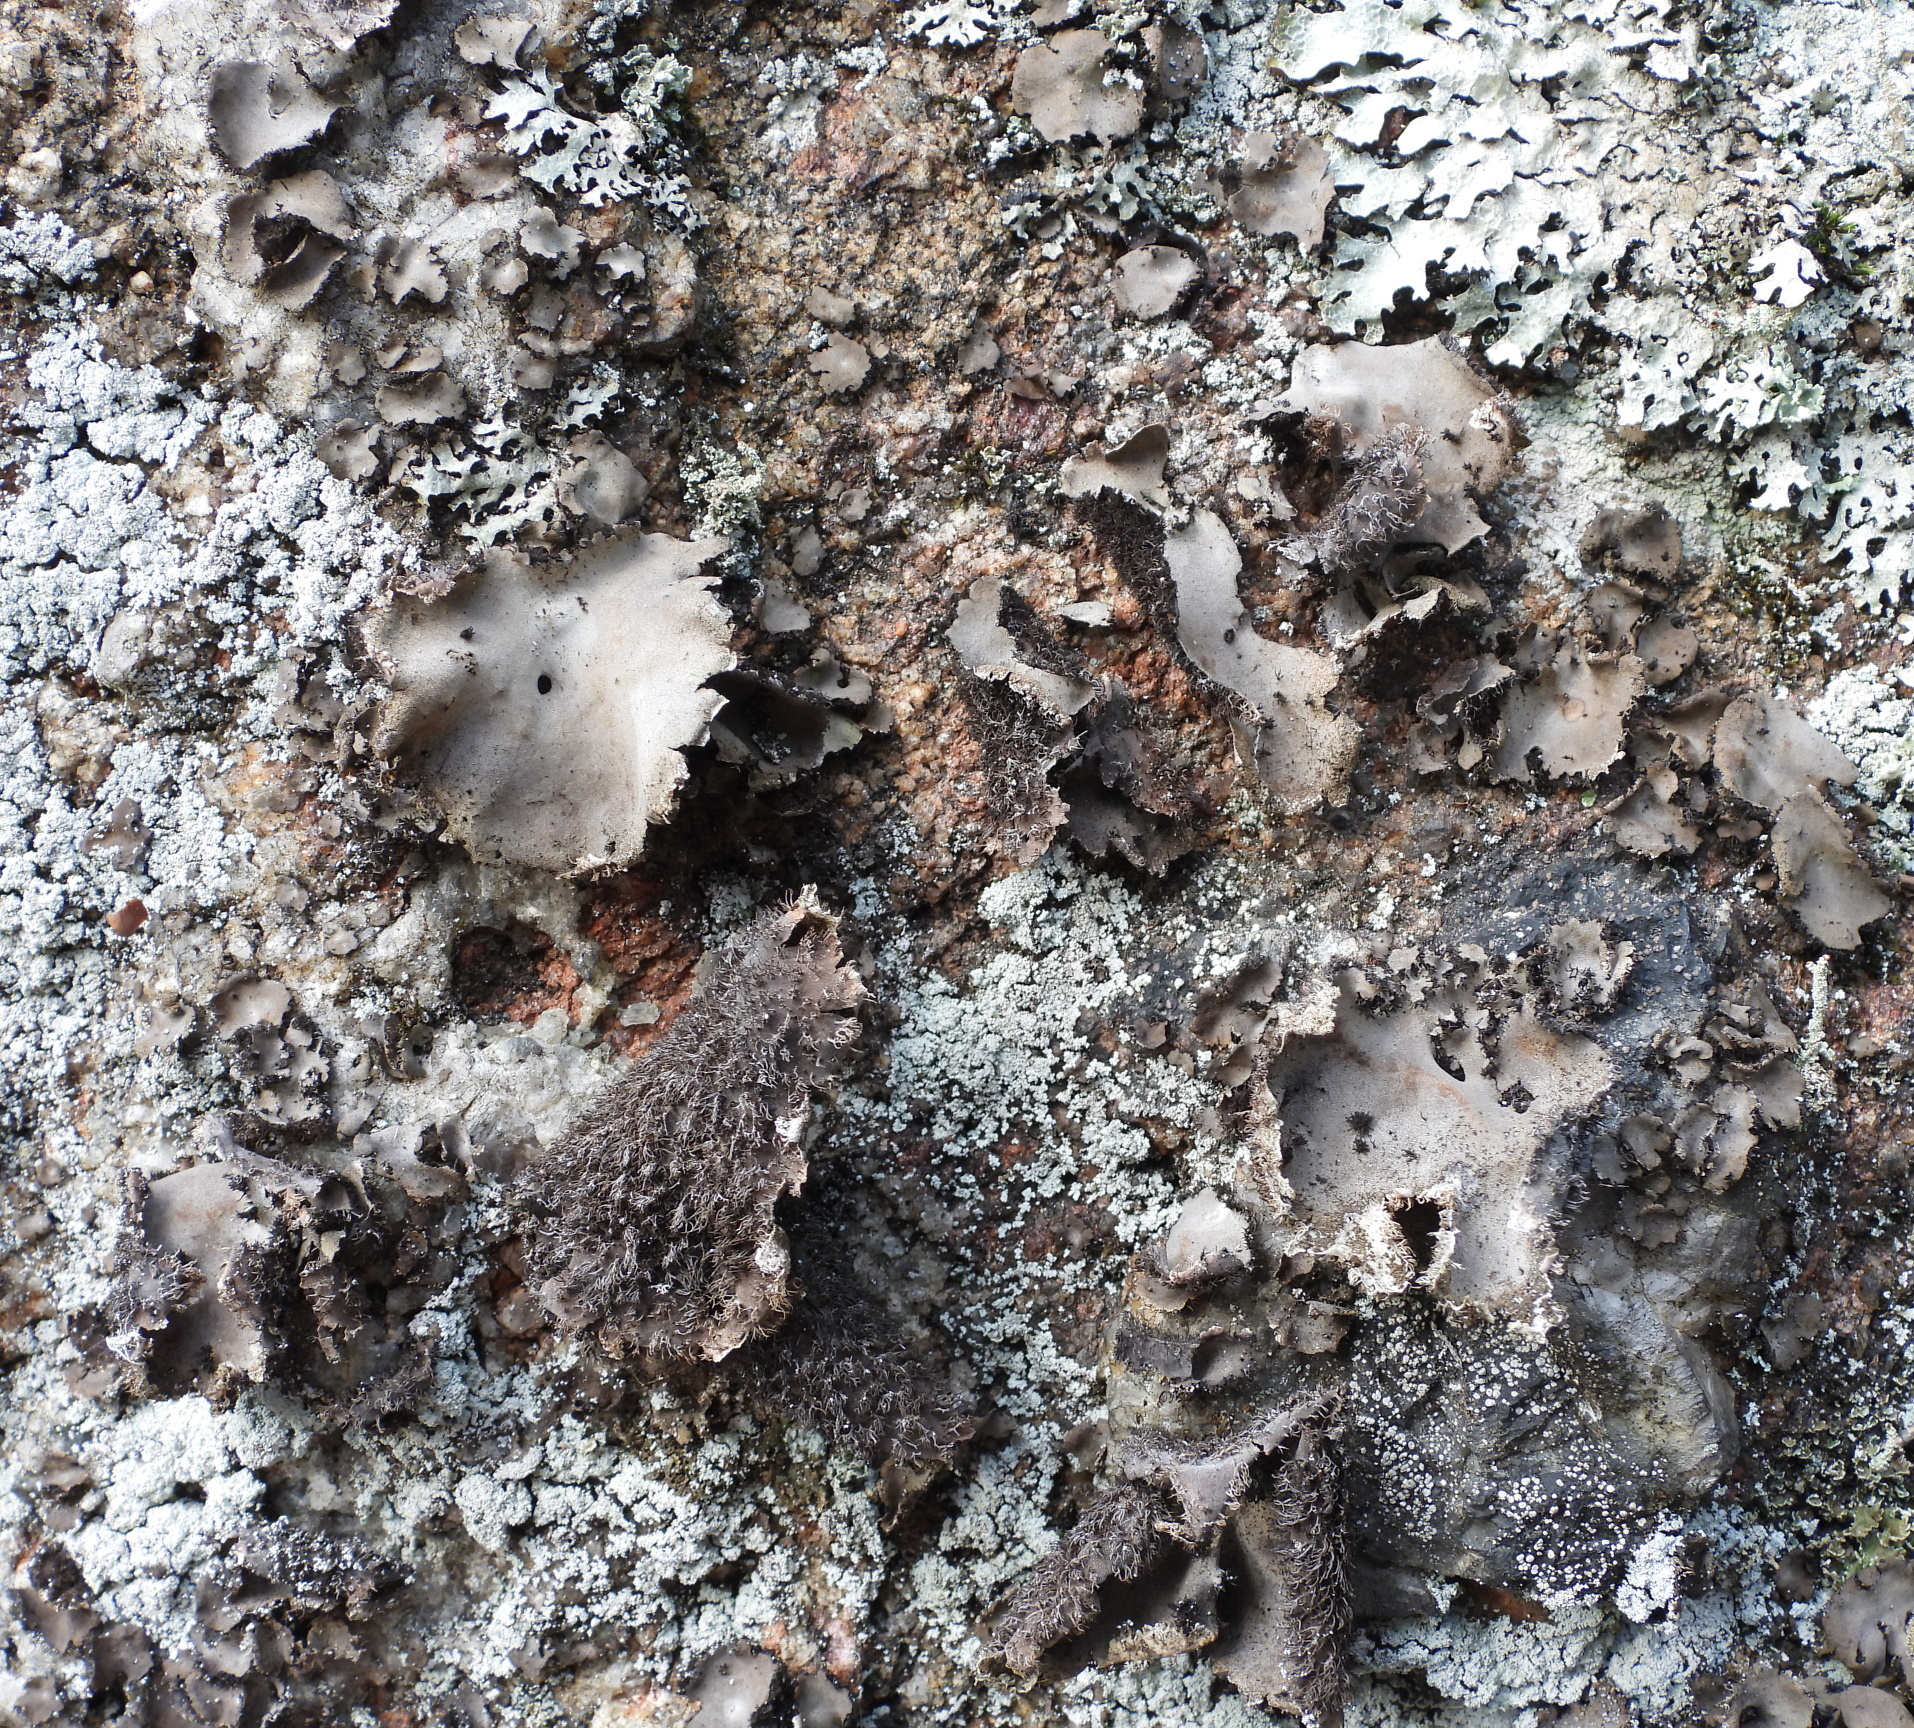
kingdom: Fungi
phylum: Ascomycota
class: Lecanoromycetes
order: Umbilicariales
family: Umbilicariaceae
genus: Umbilicaria
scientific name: Umbilicaria hirsuta
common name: Granulating rocktripe lichen
